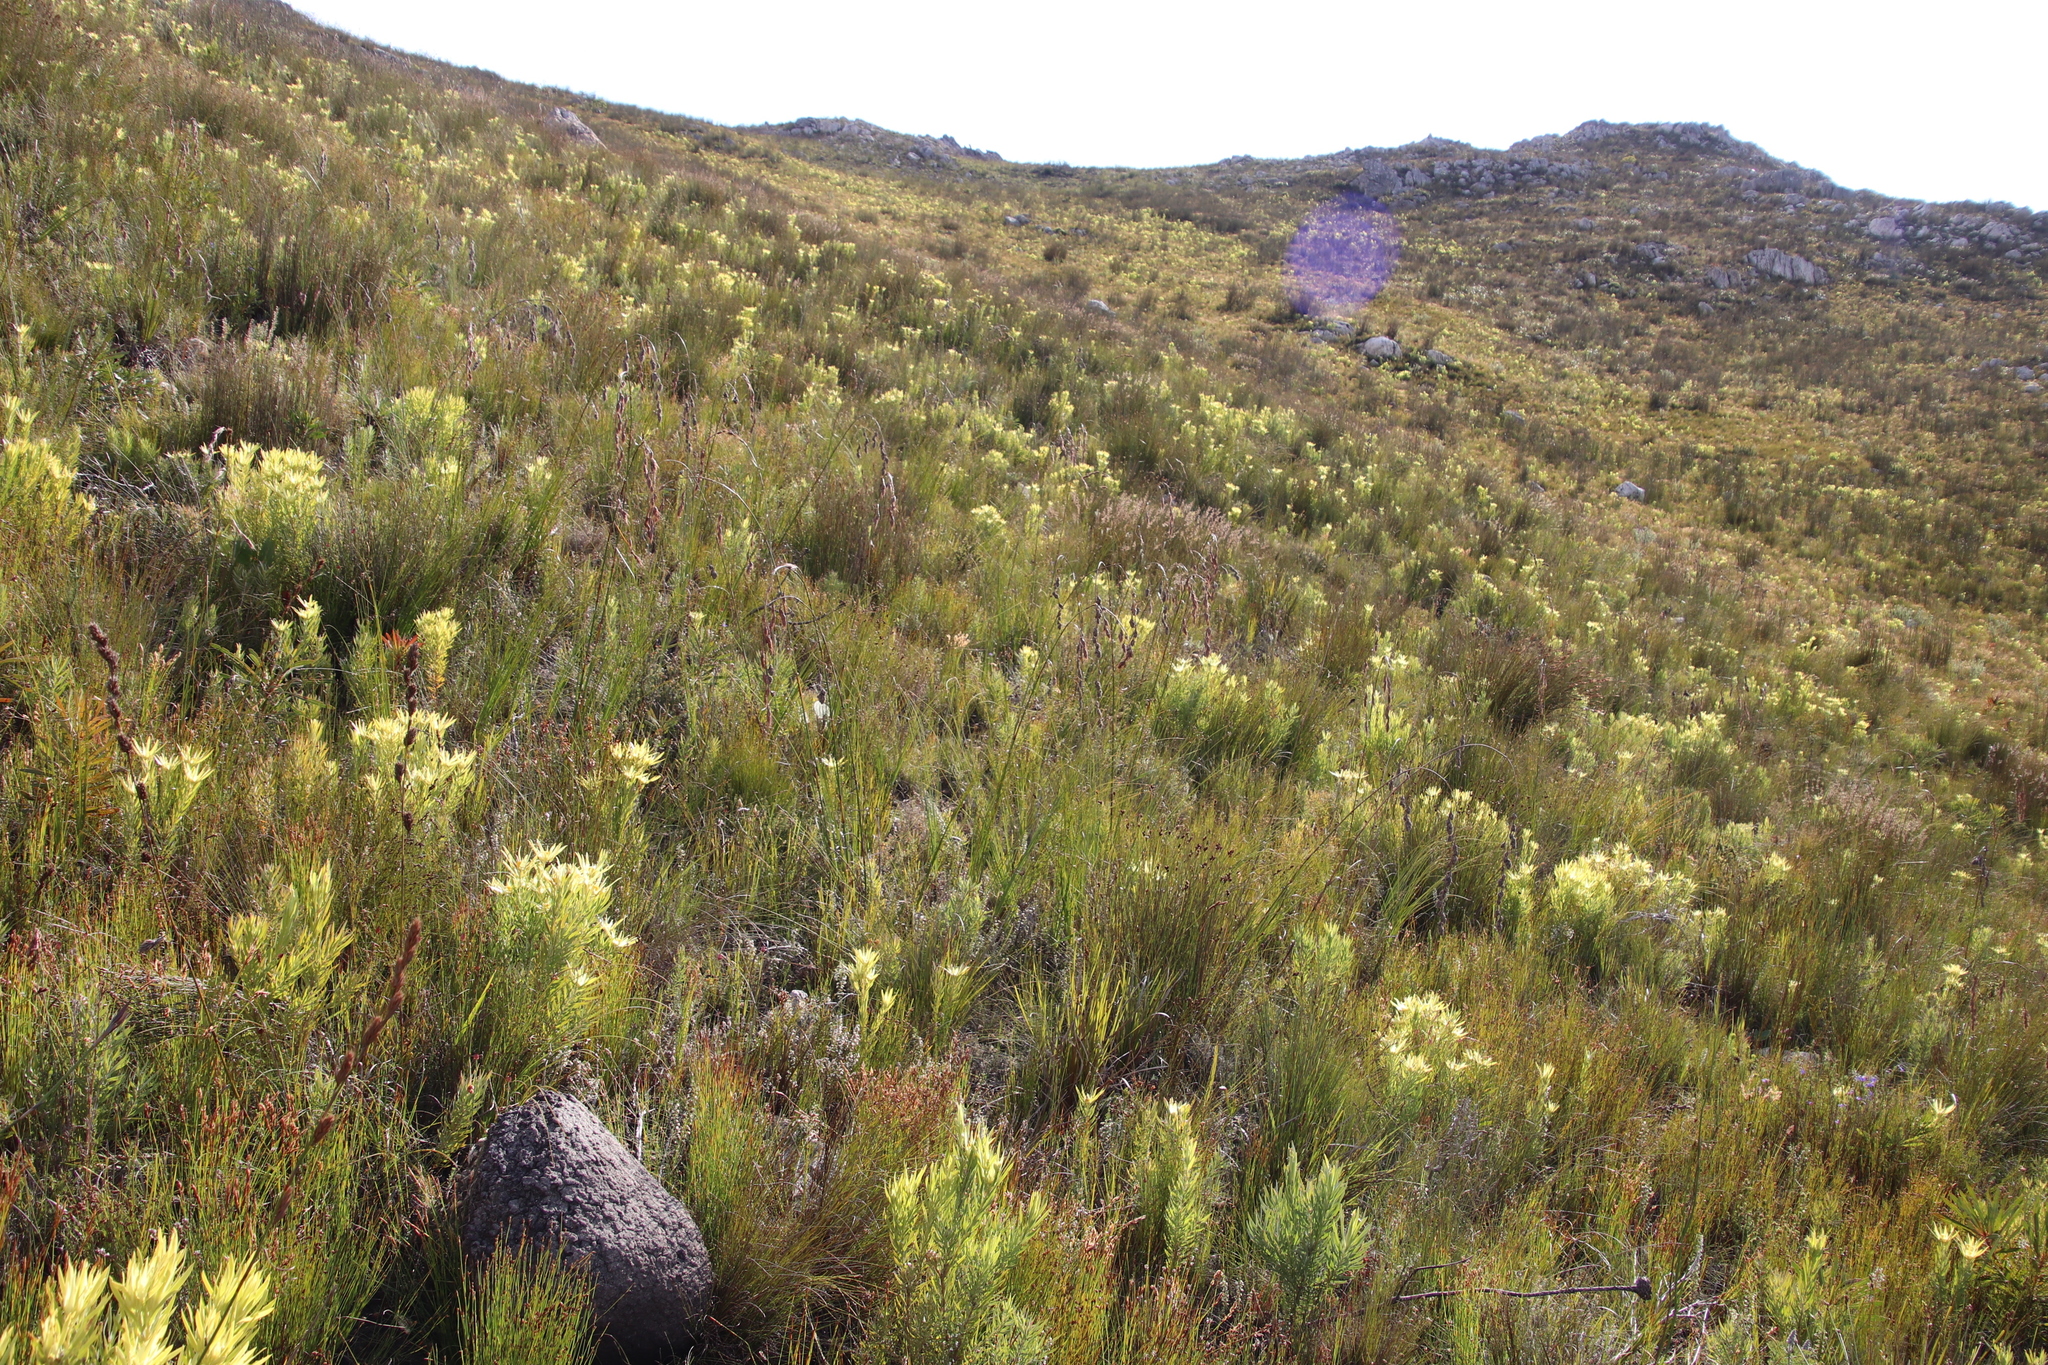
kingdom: Plantae
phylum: Tracheophyta
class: Magnoliopsida
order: Proteales
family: Proteaceae
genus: Leucadendron
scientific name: Leucadendron xanthoconus
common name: Sickle-leaf conebush
